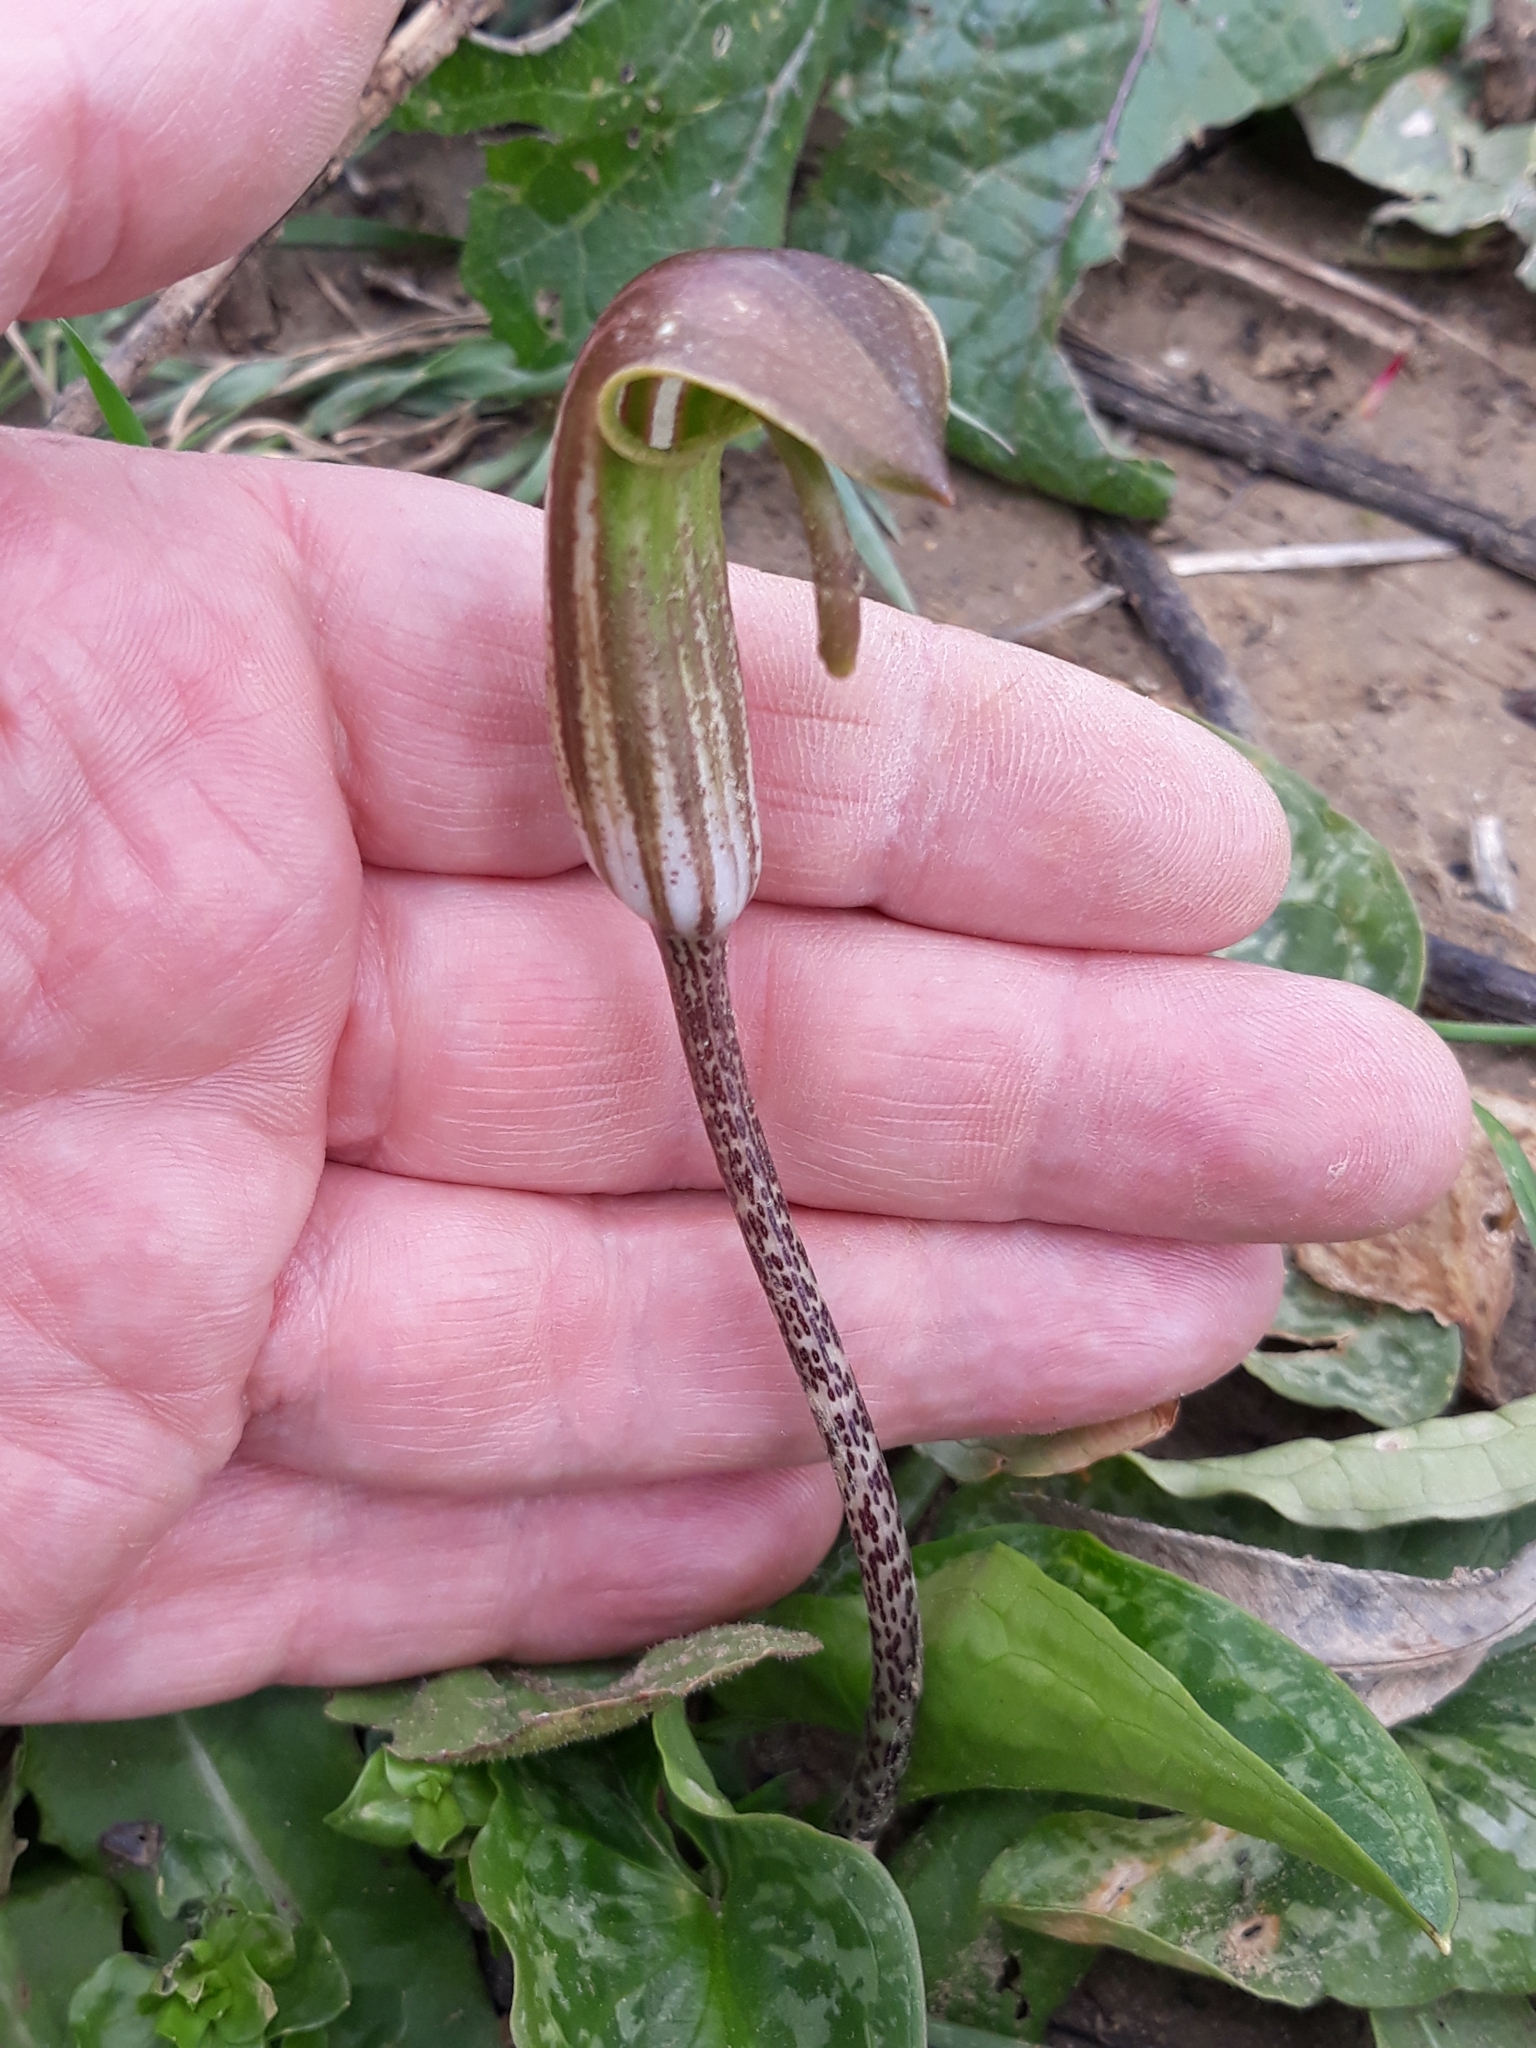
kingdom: Plantae
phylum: Tracheophyta
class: Liliopsida
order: Alismatales
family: Araceae
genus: Arisarum
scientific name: Arisarum vulgare
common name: Common arisarum
